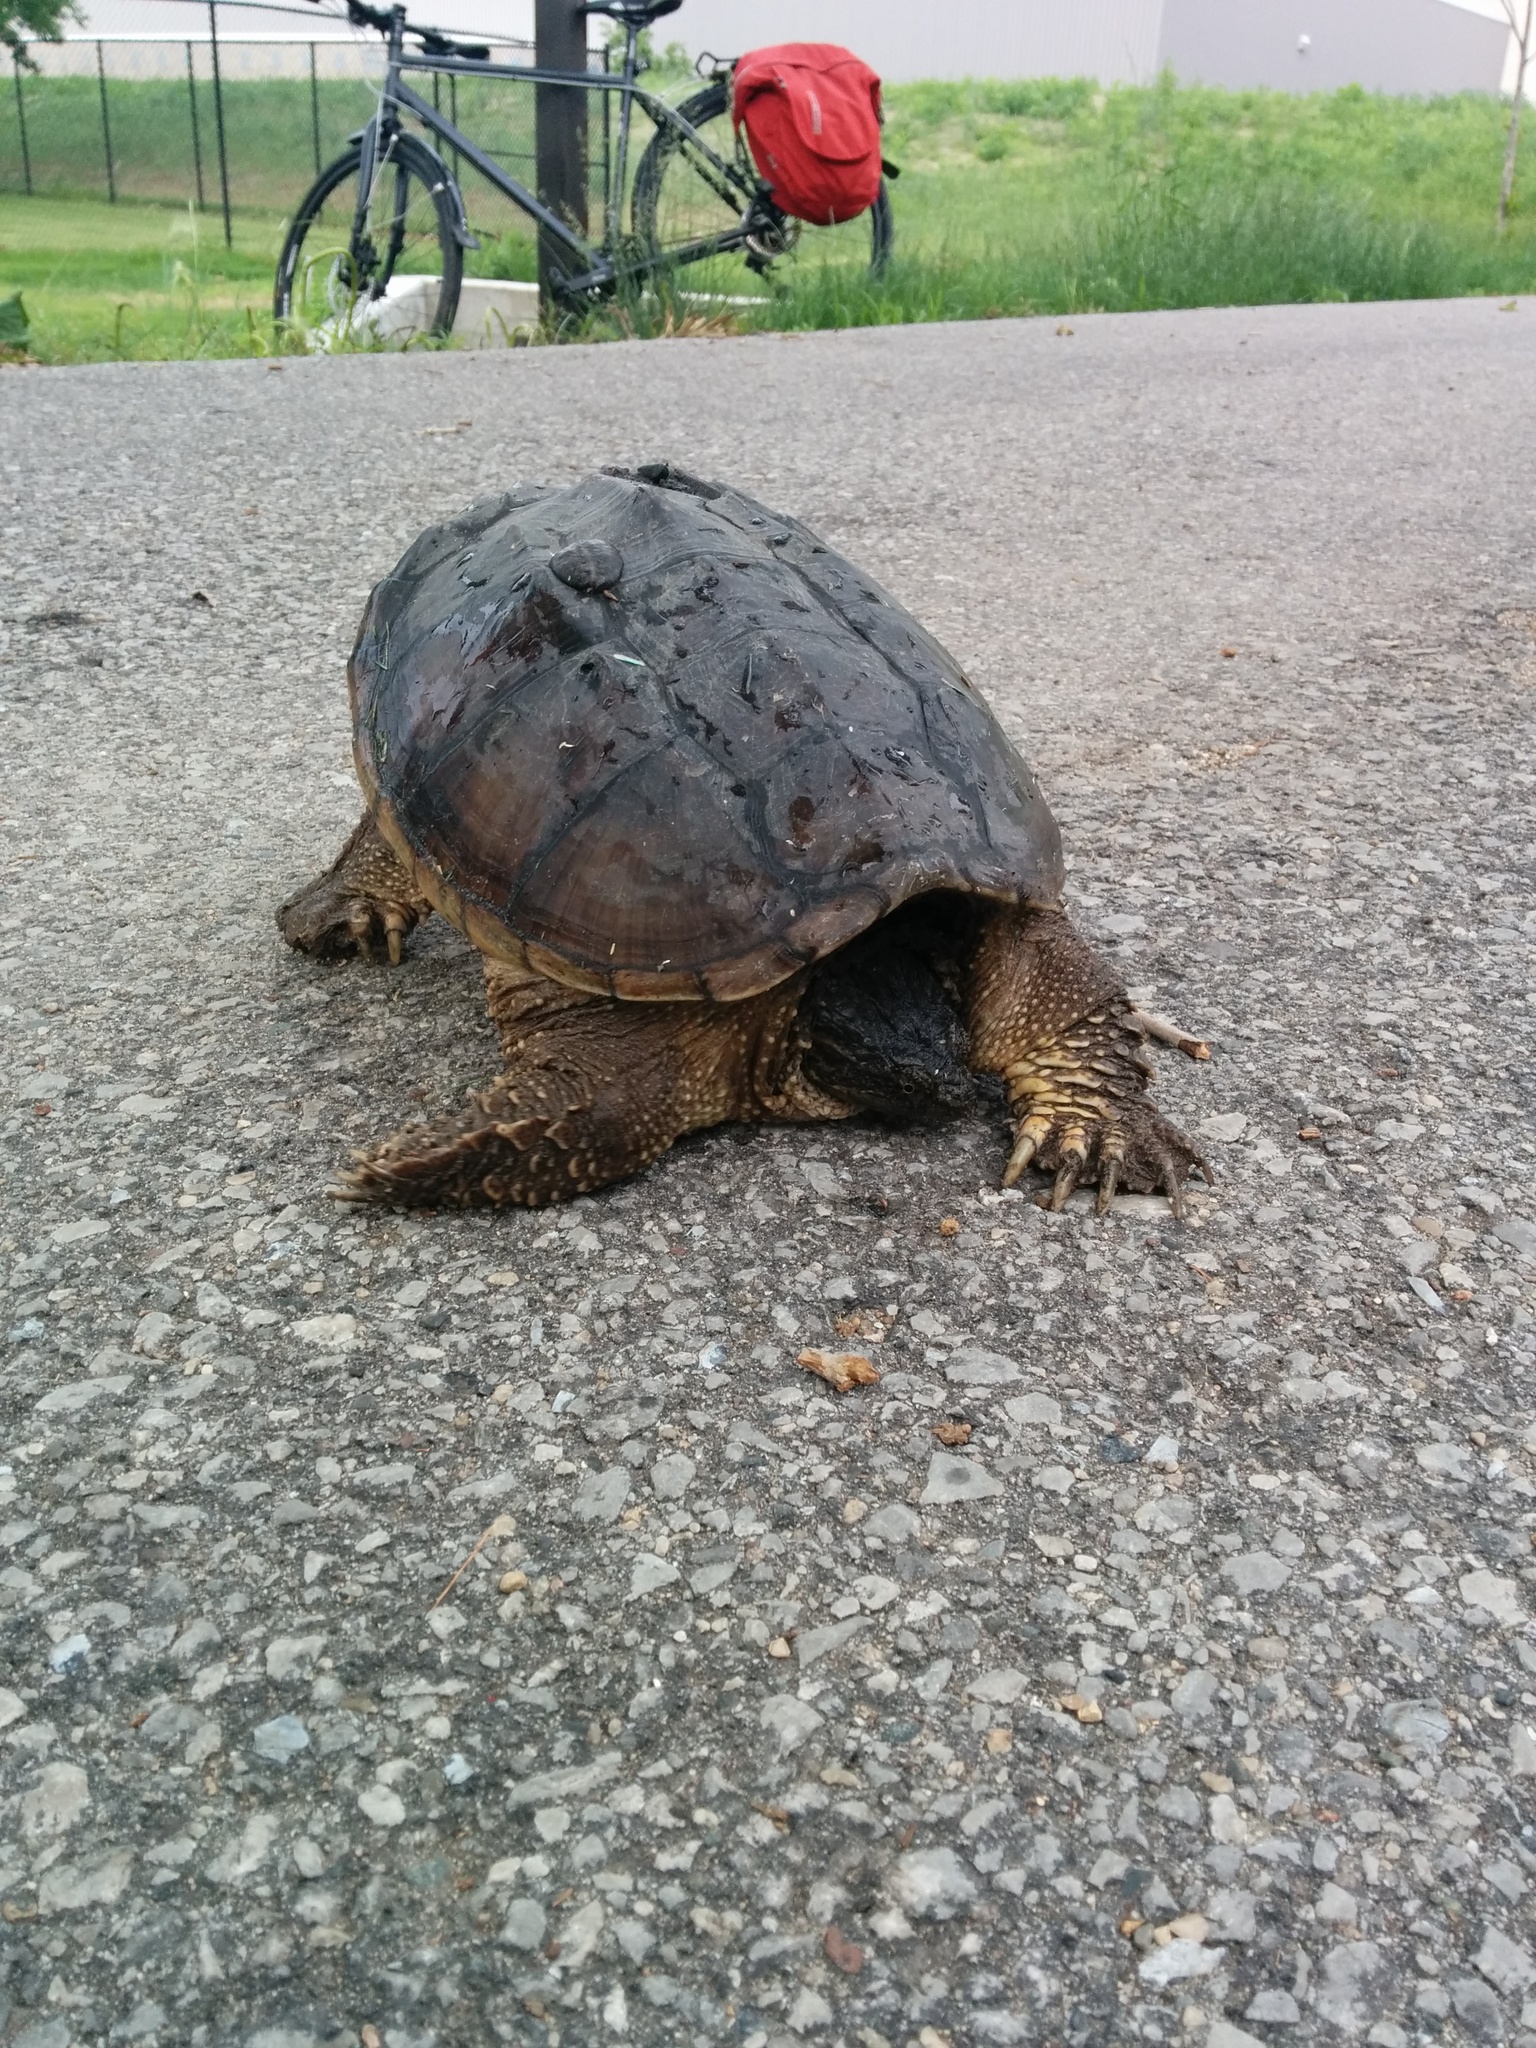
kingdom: Animalia
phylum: Chordata
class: Testudines
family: Chelydridae
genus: Chelydra
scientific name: Chelydra serpentina
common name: Common snapping turtle
